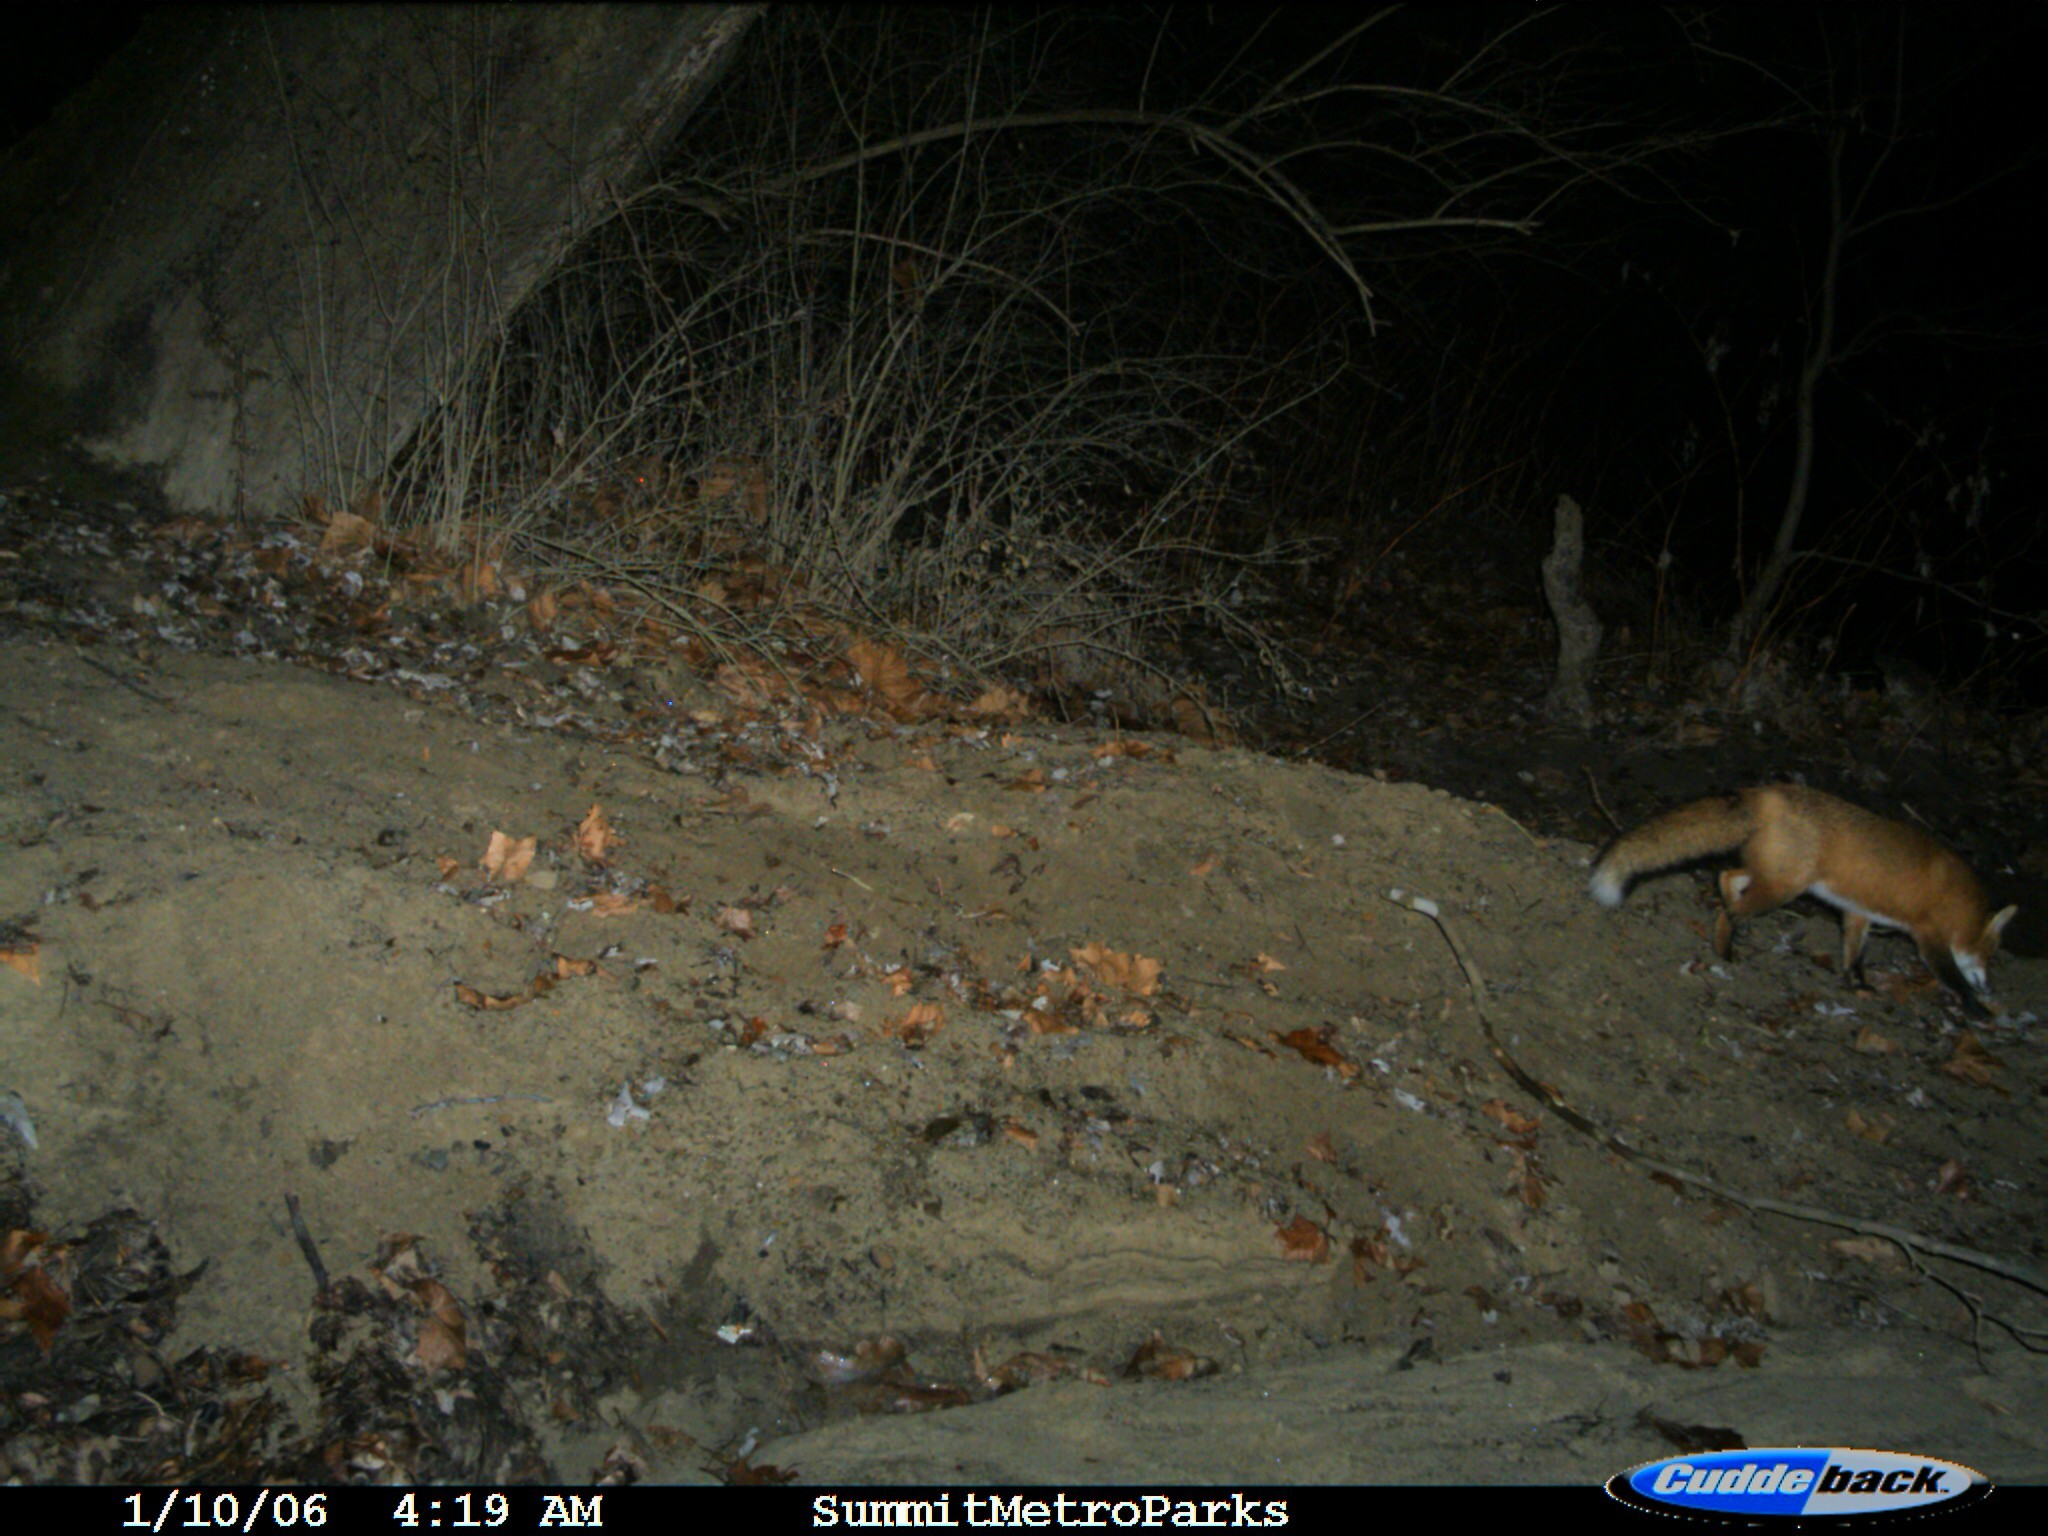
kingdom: Animalia
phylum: Chordata
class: Mammalia
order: Carnivora
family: Canidae
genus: Vulpes
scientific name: Vulpes vulpes
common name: Red fox
